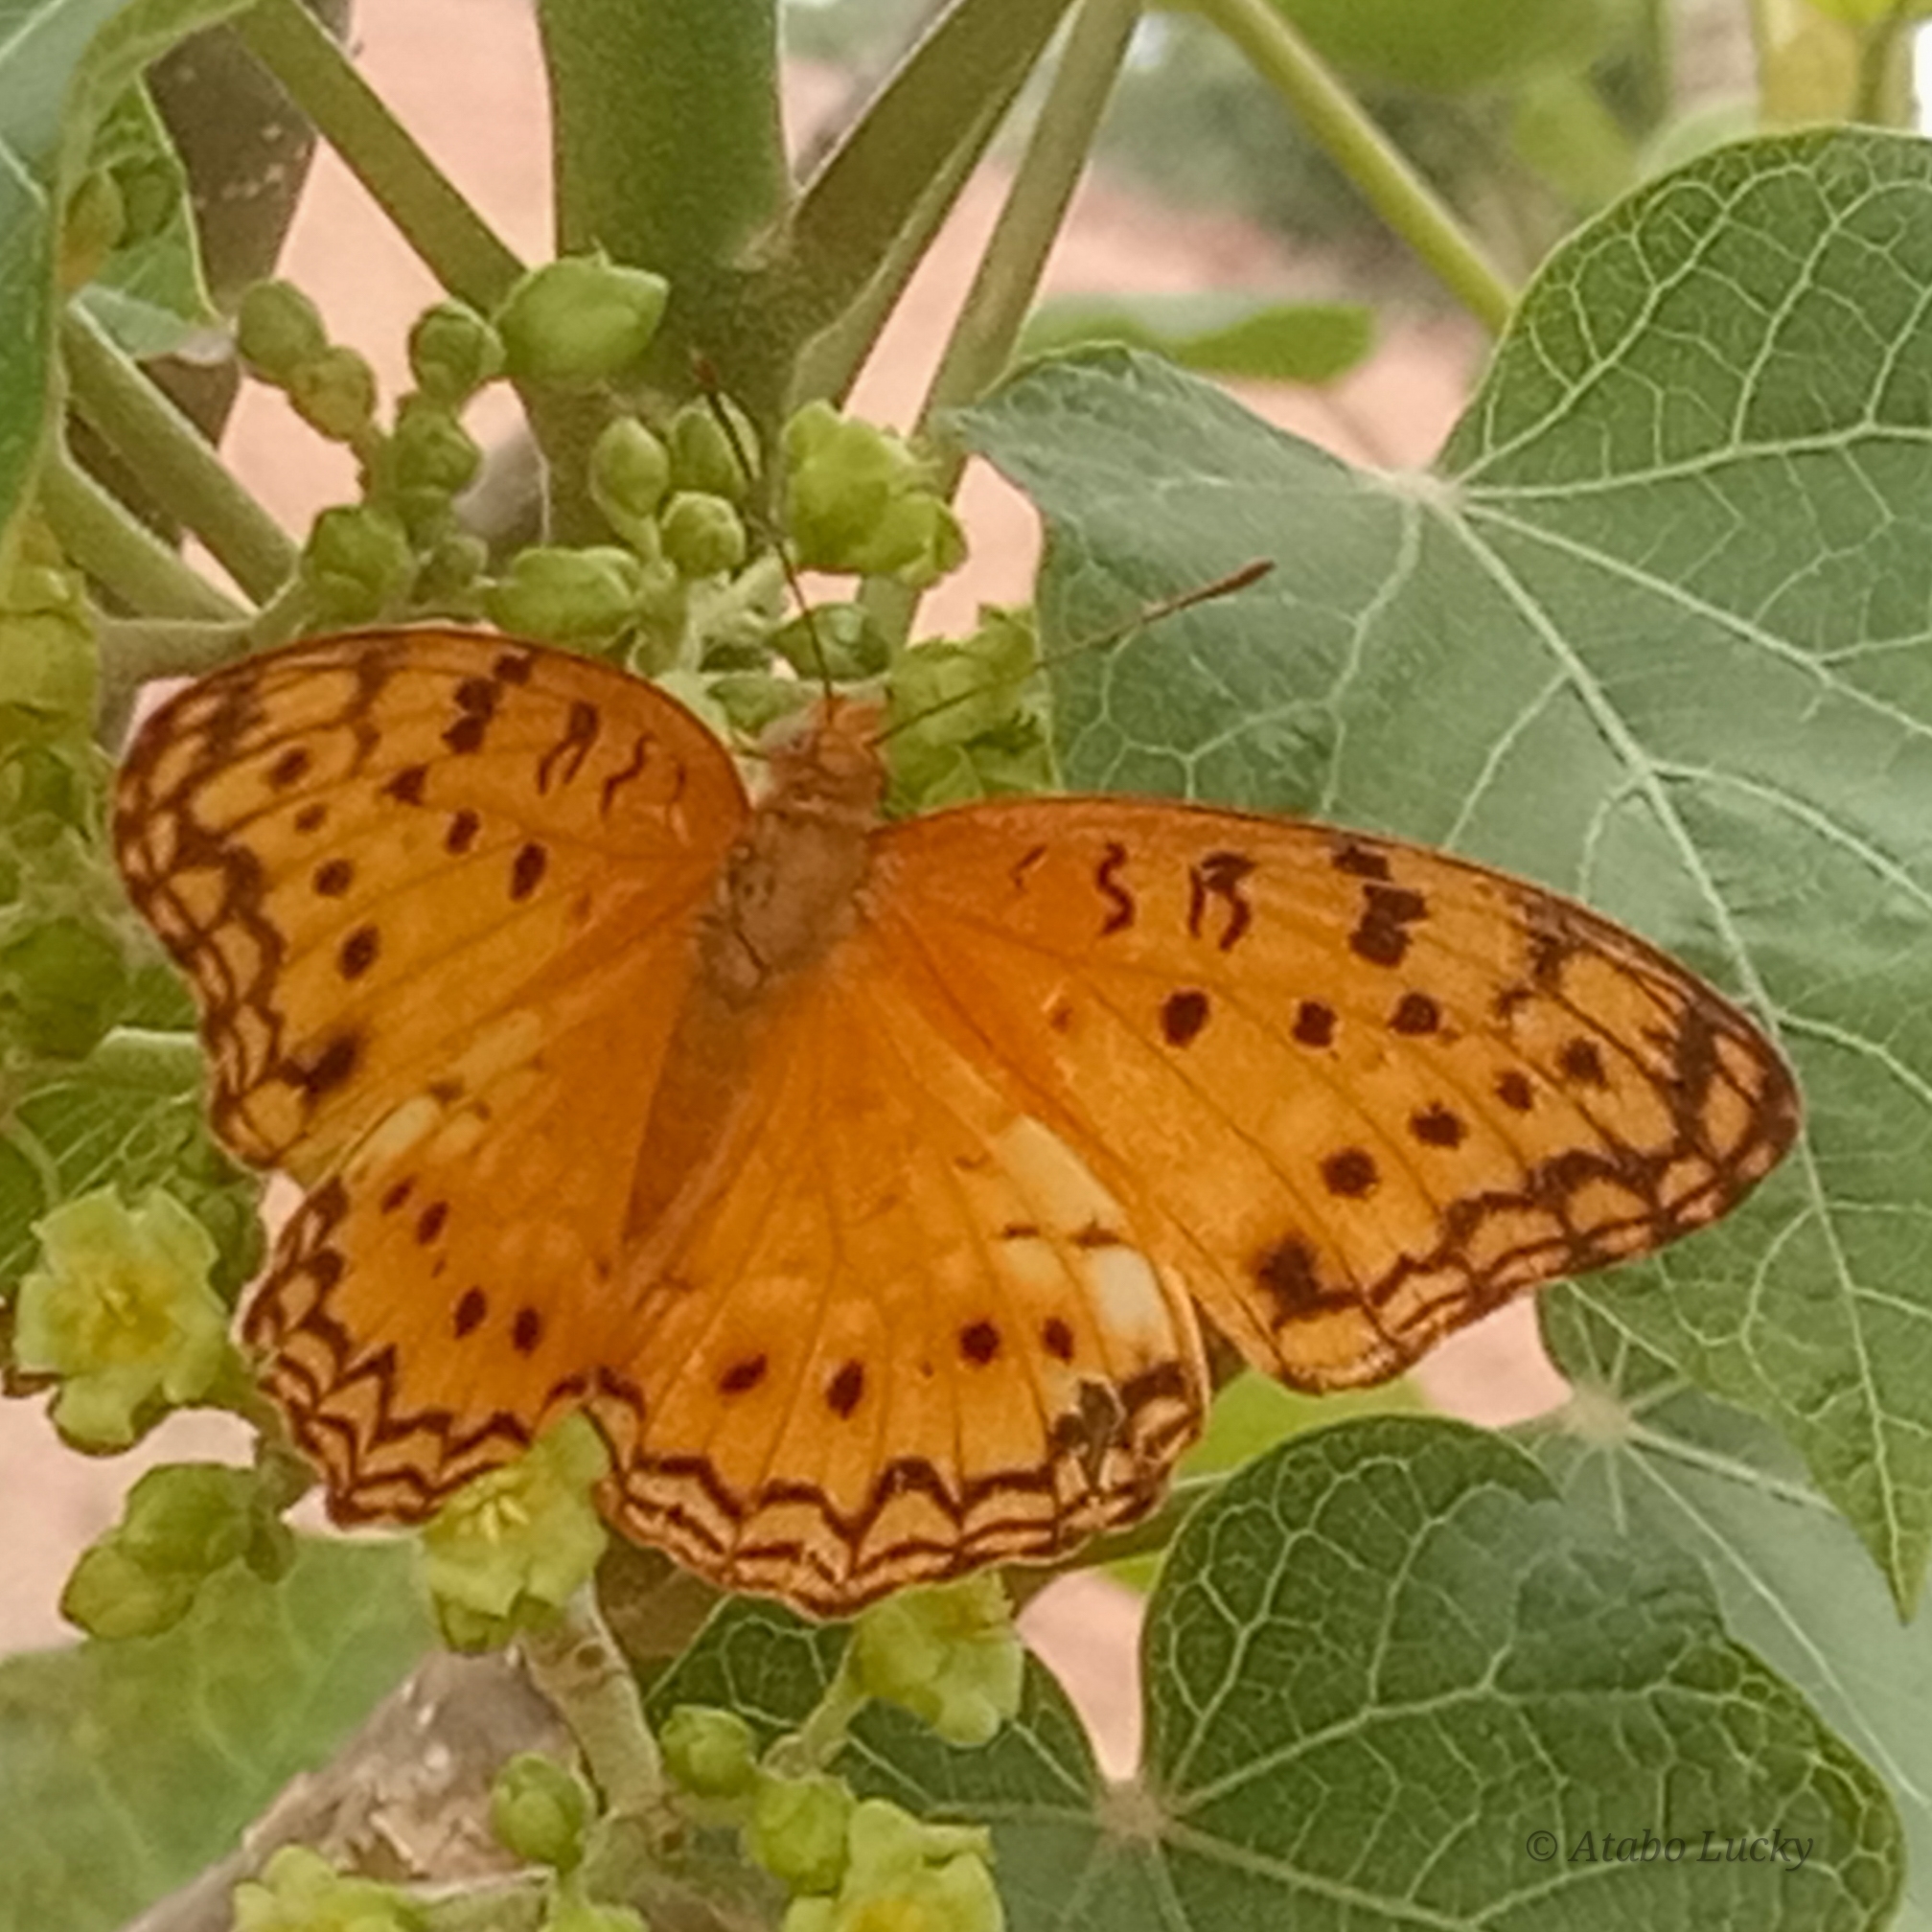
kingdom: Animalia
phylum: Arthropoda
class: Insecta
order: Lepidoptera
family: Nymphalidae
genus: Phalanta
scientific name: Phalanta phalantha
